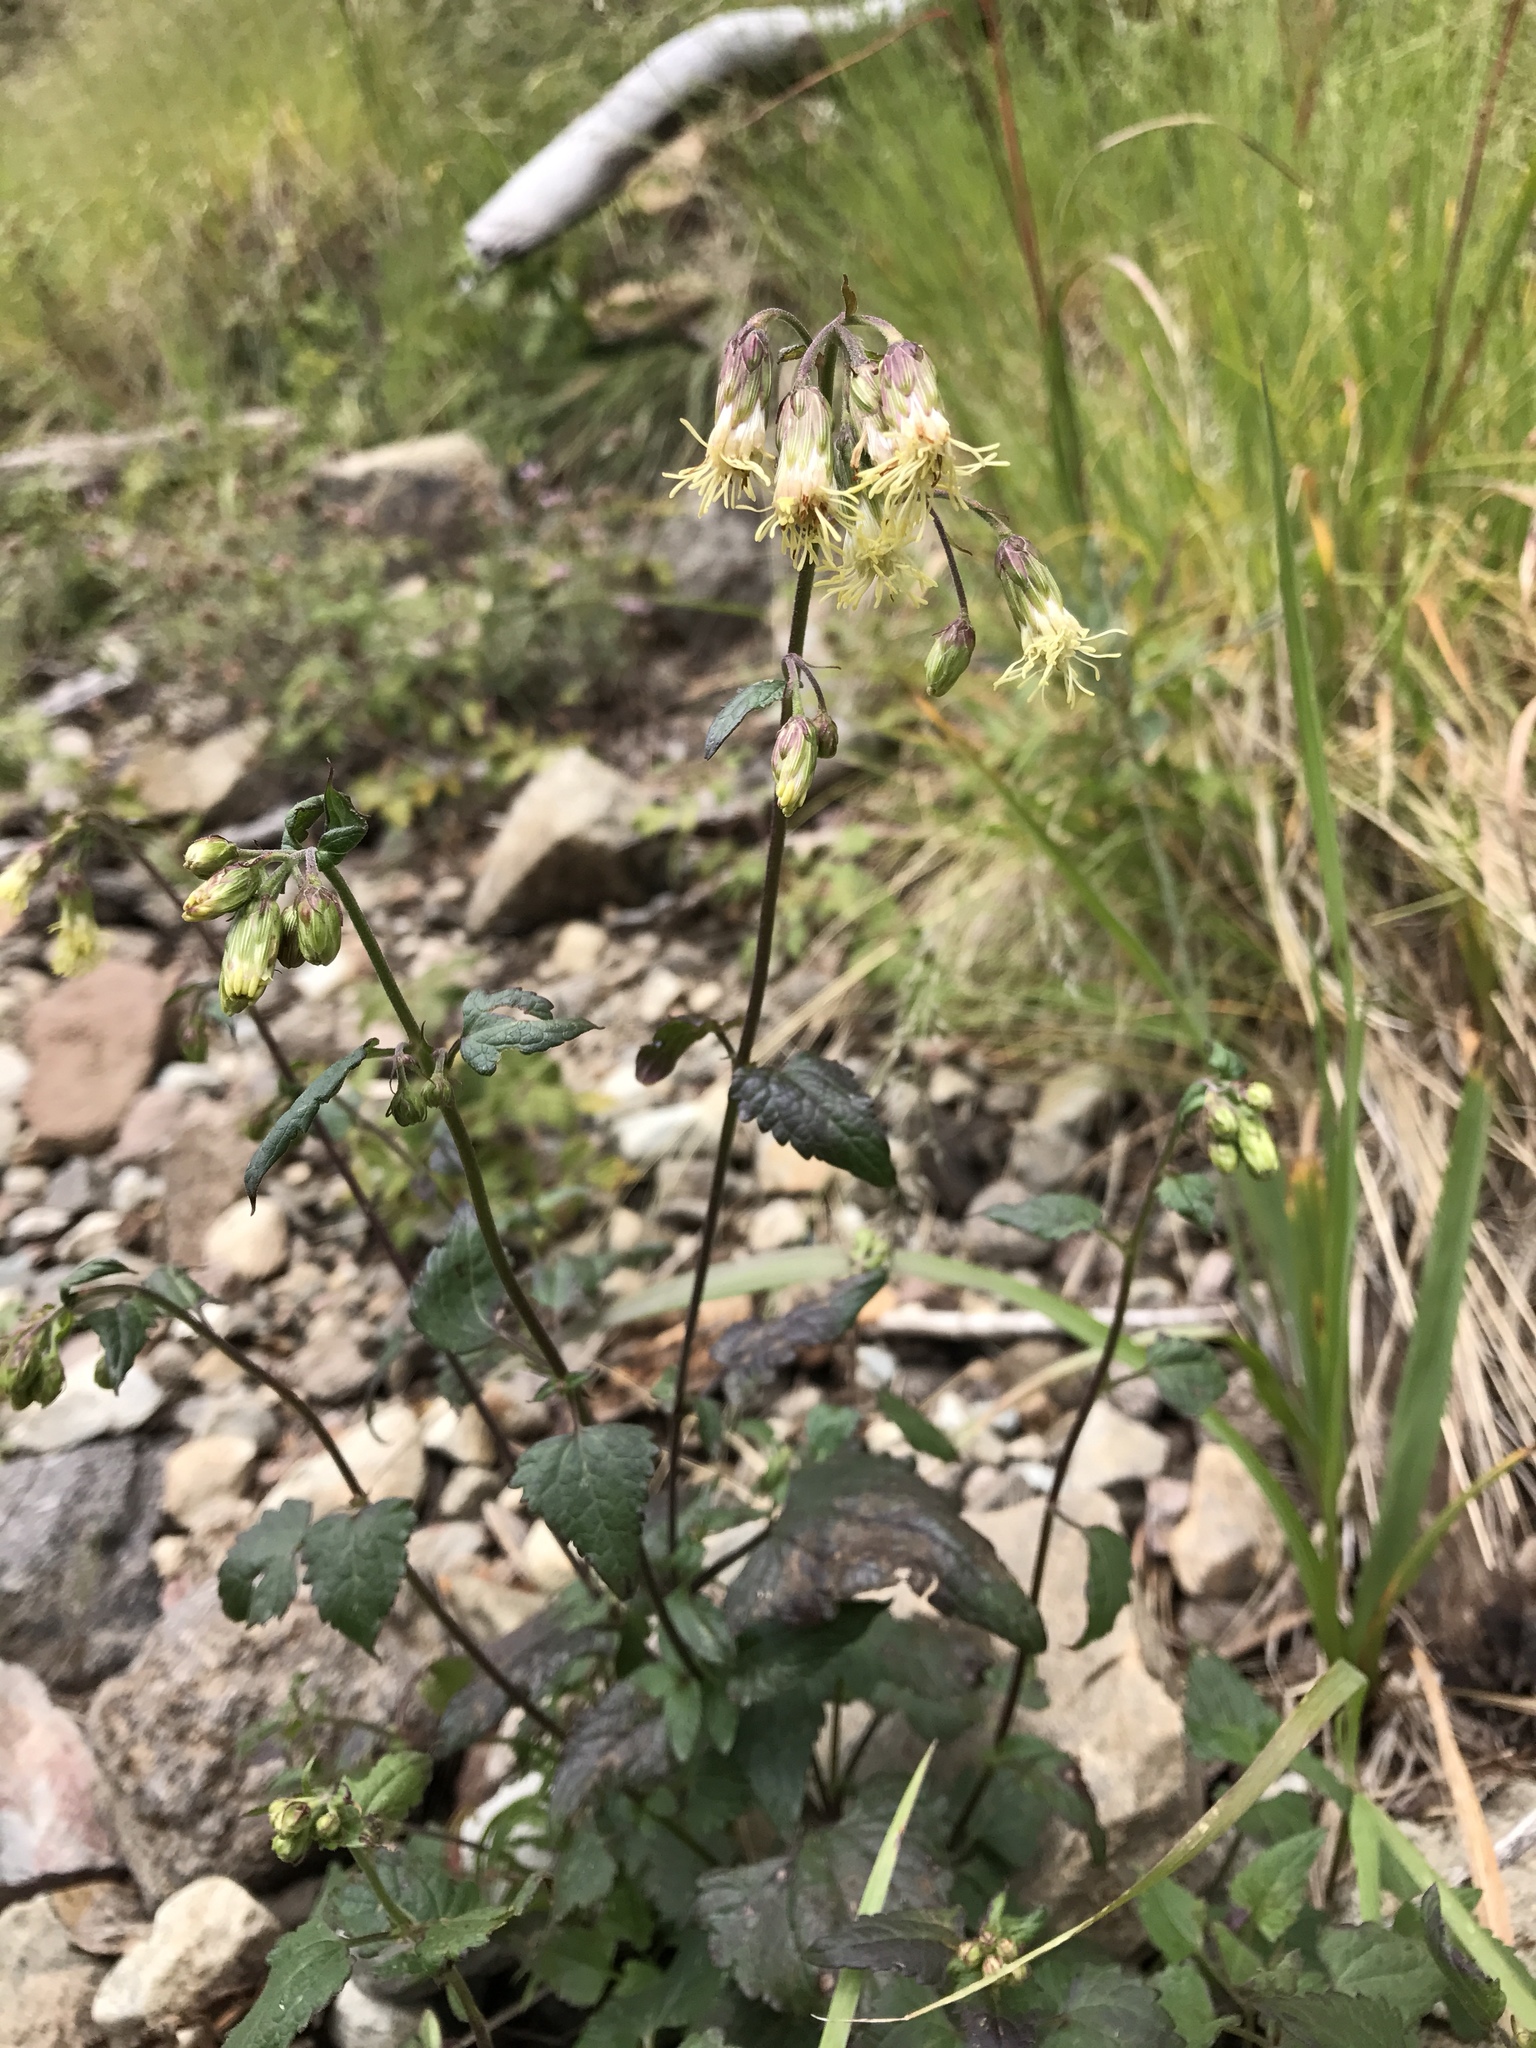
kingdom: Plantae
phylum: Tracheophyta
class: Magnoliopsida
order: Asterales
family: Asteraceae
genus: Brickellia
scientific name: Brickellia grandiflora
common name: Large-flowered brickellia
